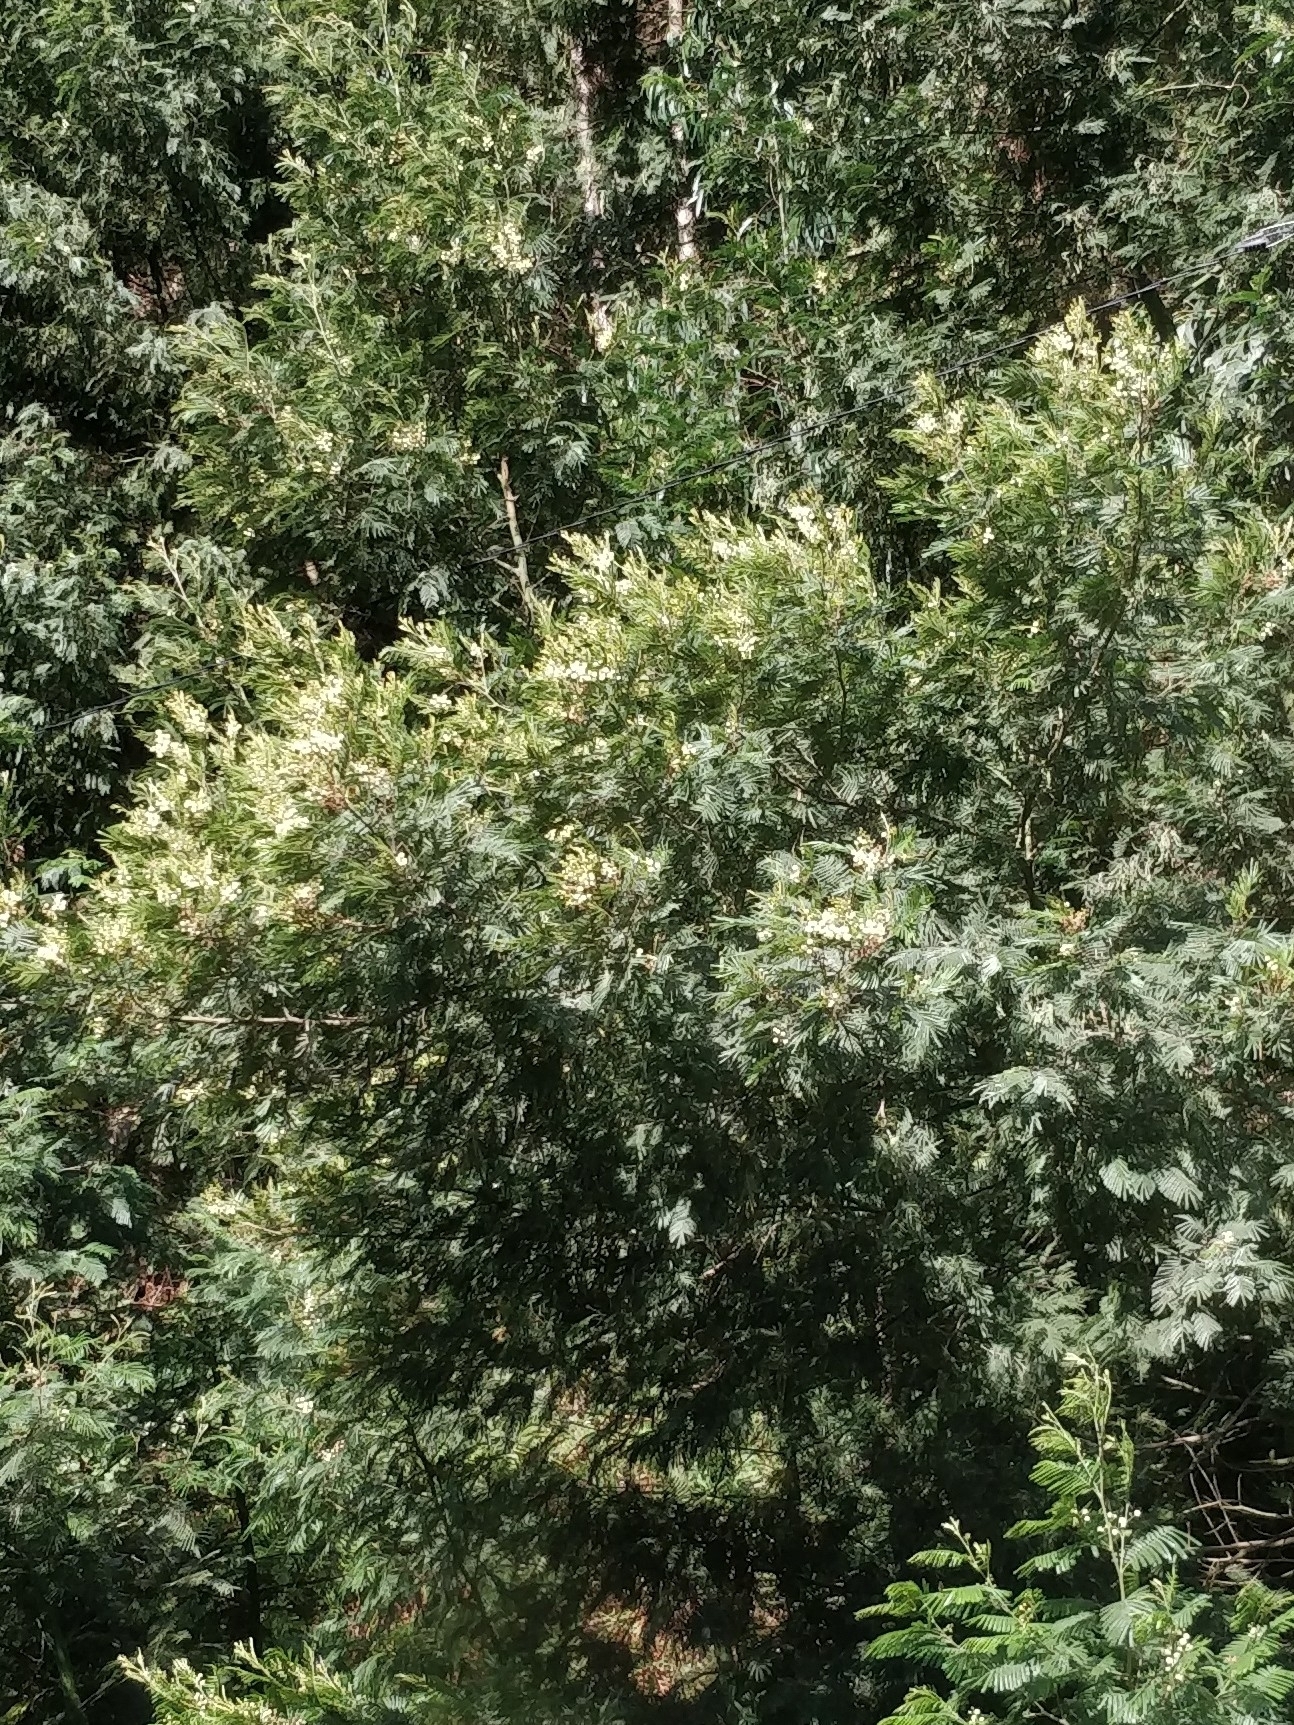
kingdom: Plantae
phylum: Tracheophyta
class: Magnoliopsida
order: Fabales
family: Fabaceae
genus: Acacia
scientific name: Acacia mearnsii
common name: Black wattle
